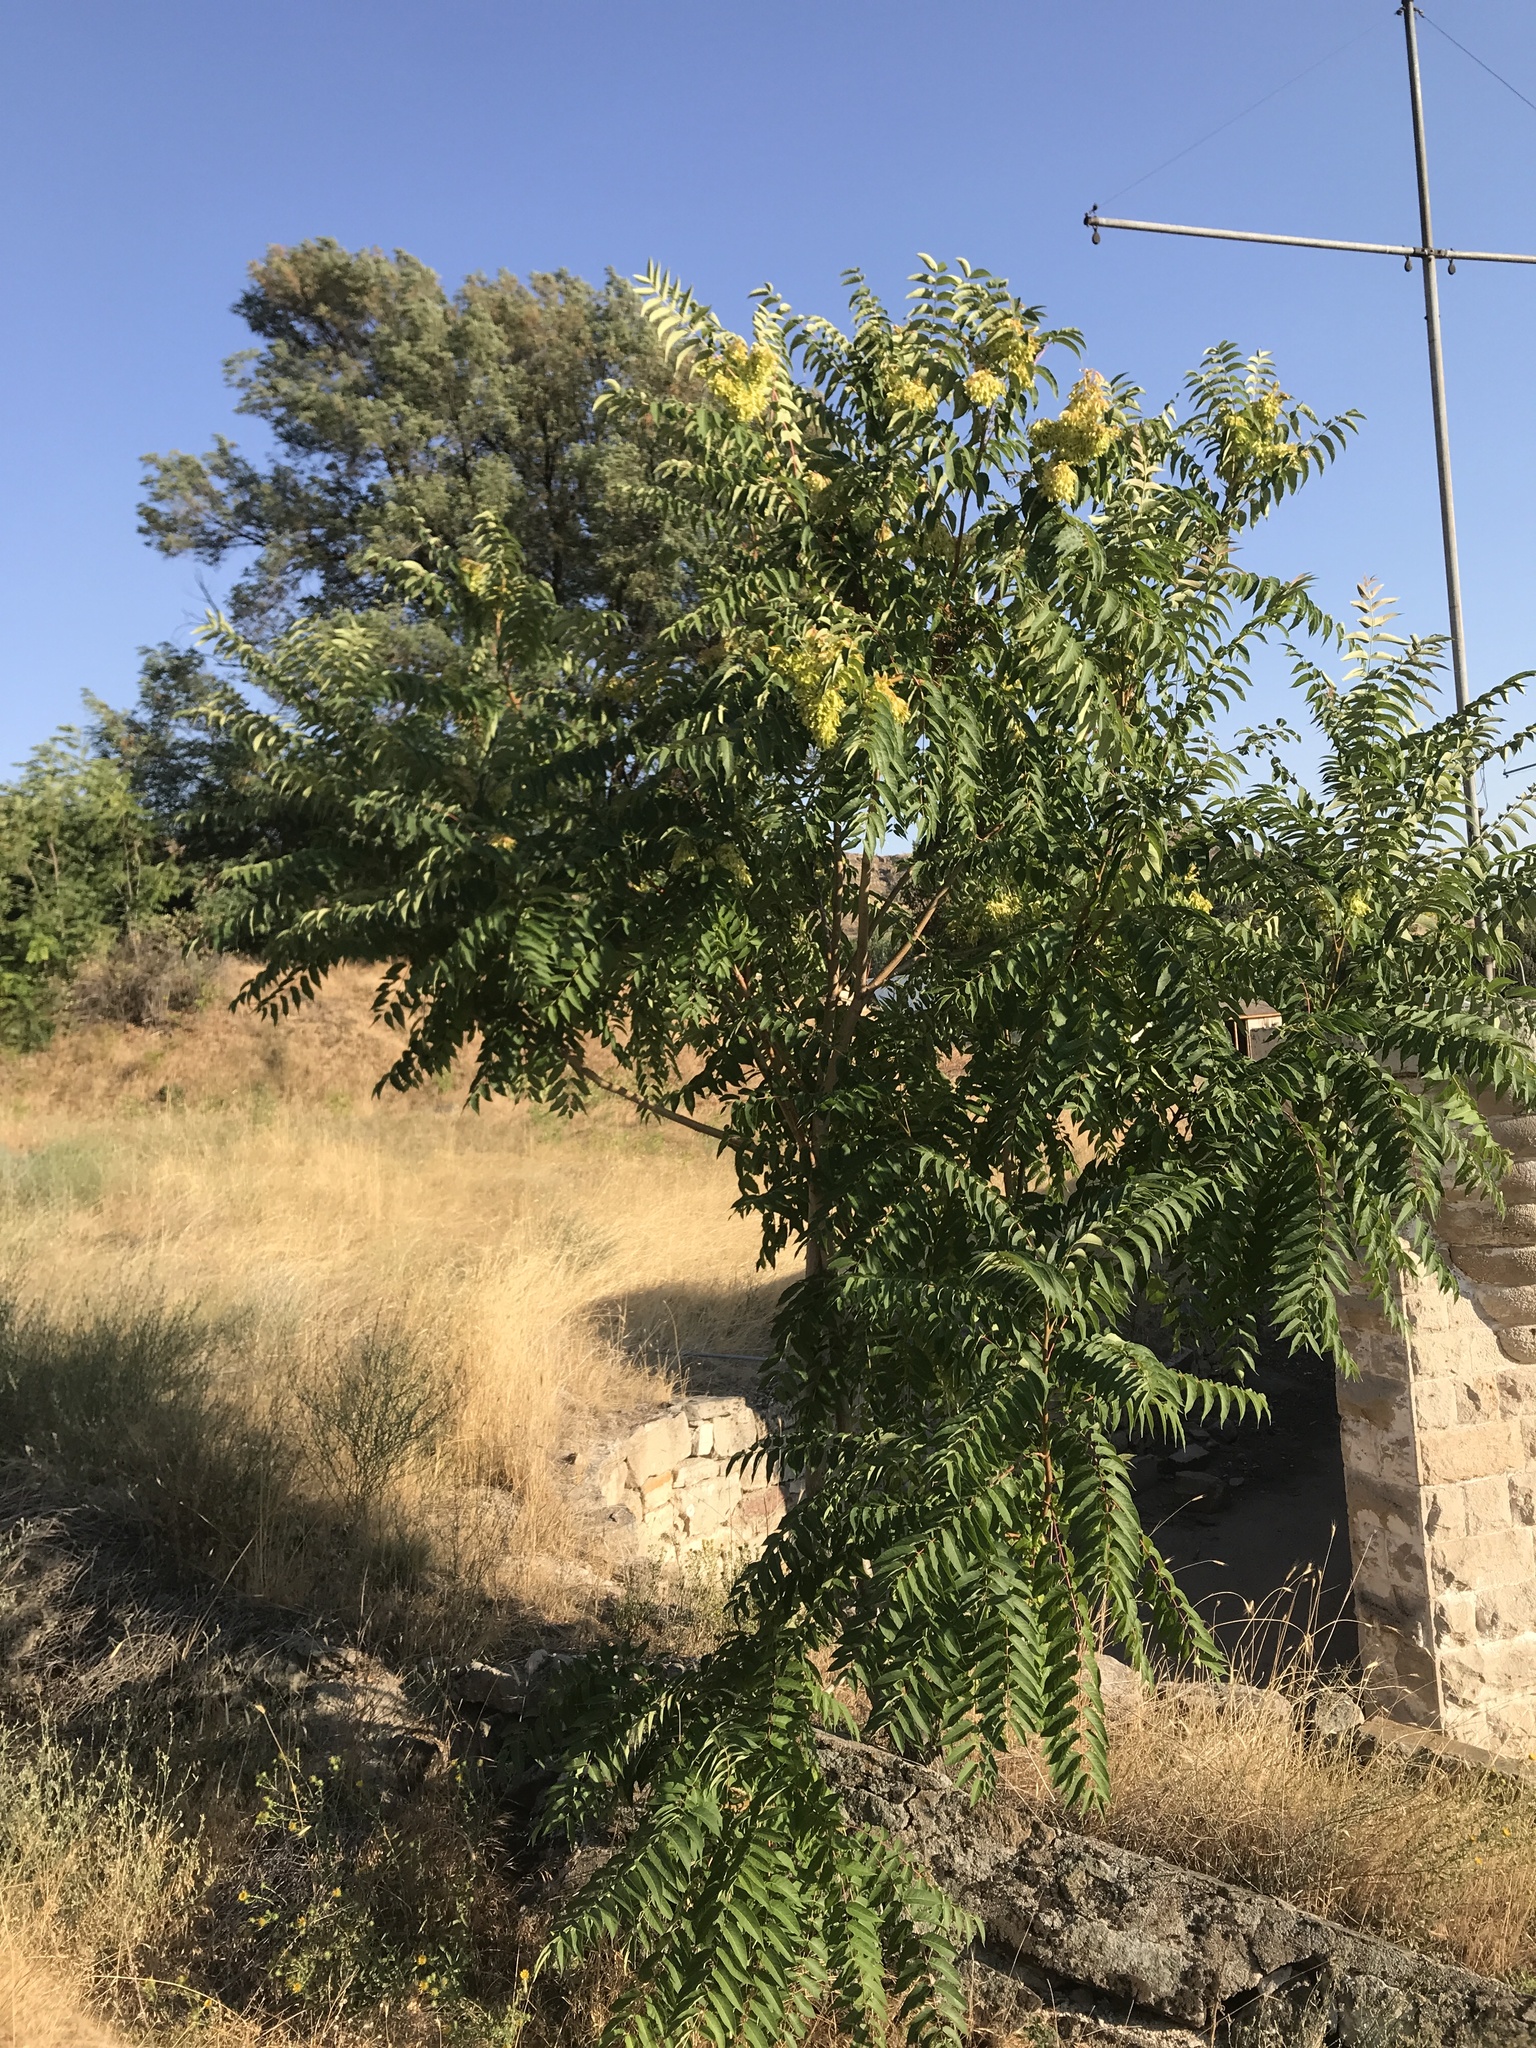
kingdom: Plantae
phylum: Tracheophyta
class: Magnoliopsida
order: Sapindales
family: Simaroubaceae
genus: Ailanthus
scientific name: Ailanthus altissima
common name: Tree-of-heaven
